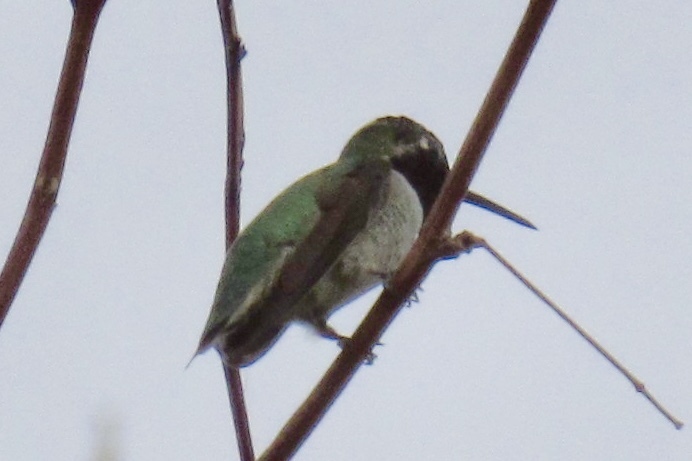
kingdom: Animalia
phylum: Chordata
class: Aves
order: Apodiformes
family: Trochilidae
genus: Calypte
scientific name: Calypte anna
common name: Anna's hummingbird
